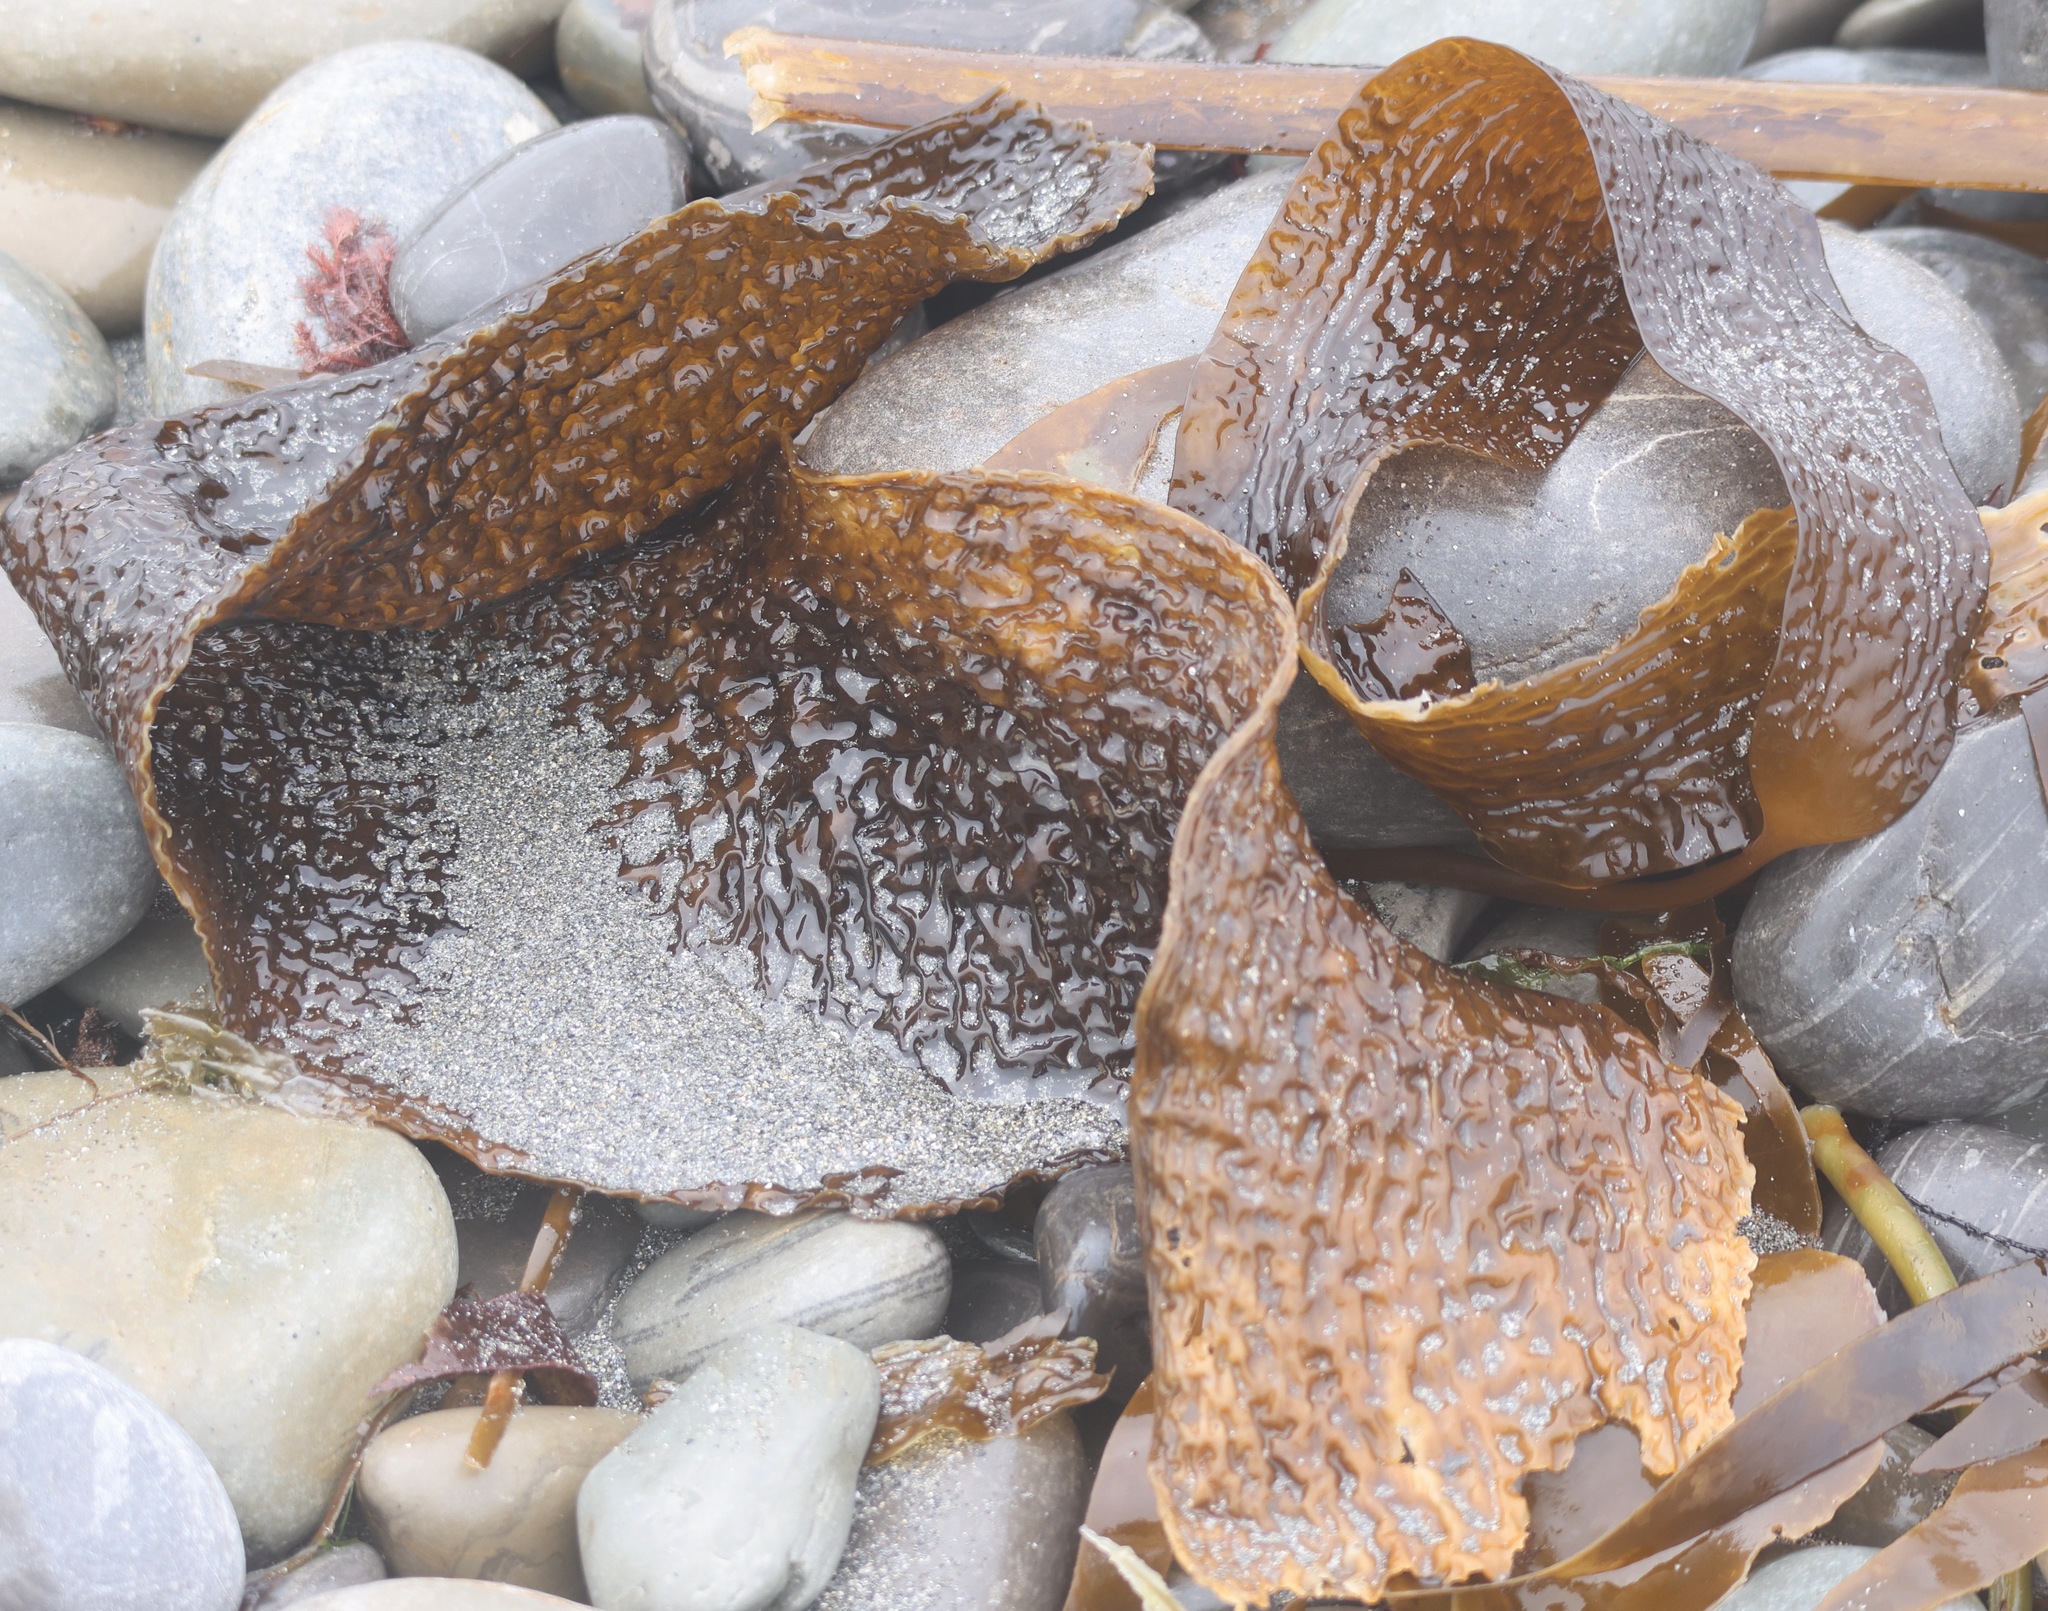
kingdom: Chromista
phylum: Ochrophyta
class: Phaeophyceae
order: Laminariales
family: Laminariaceae
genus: Saccharina
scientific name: Saccharina latissima
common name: Poor man's weather glass
